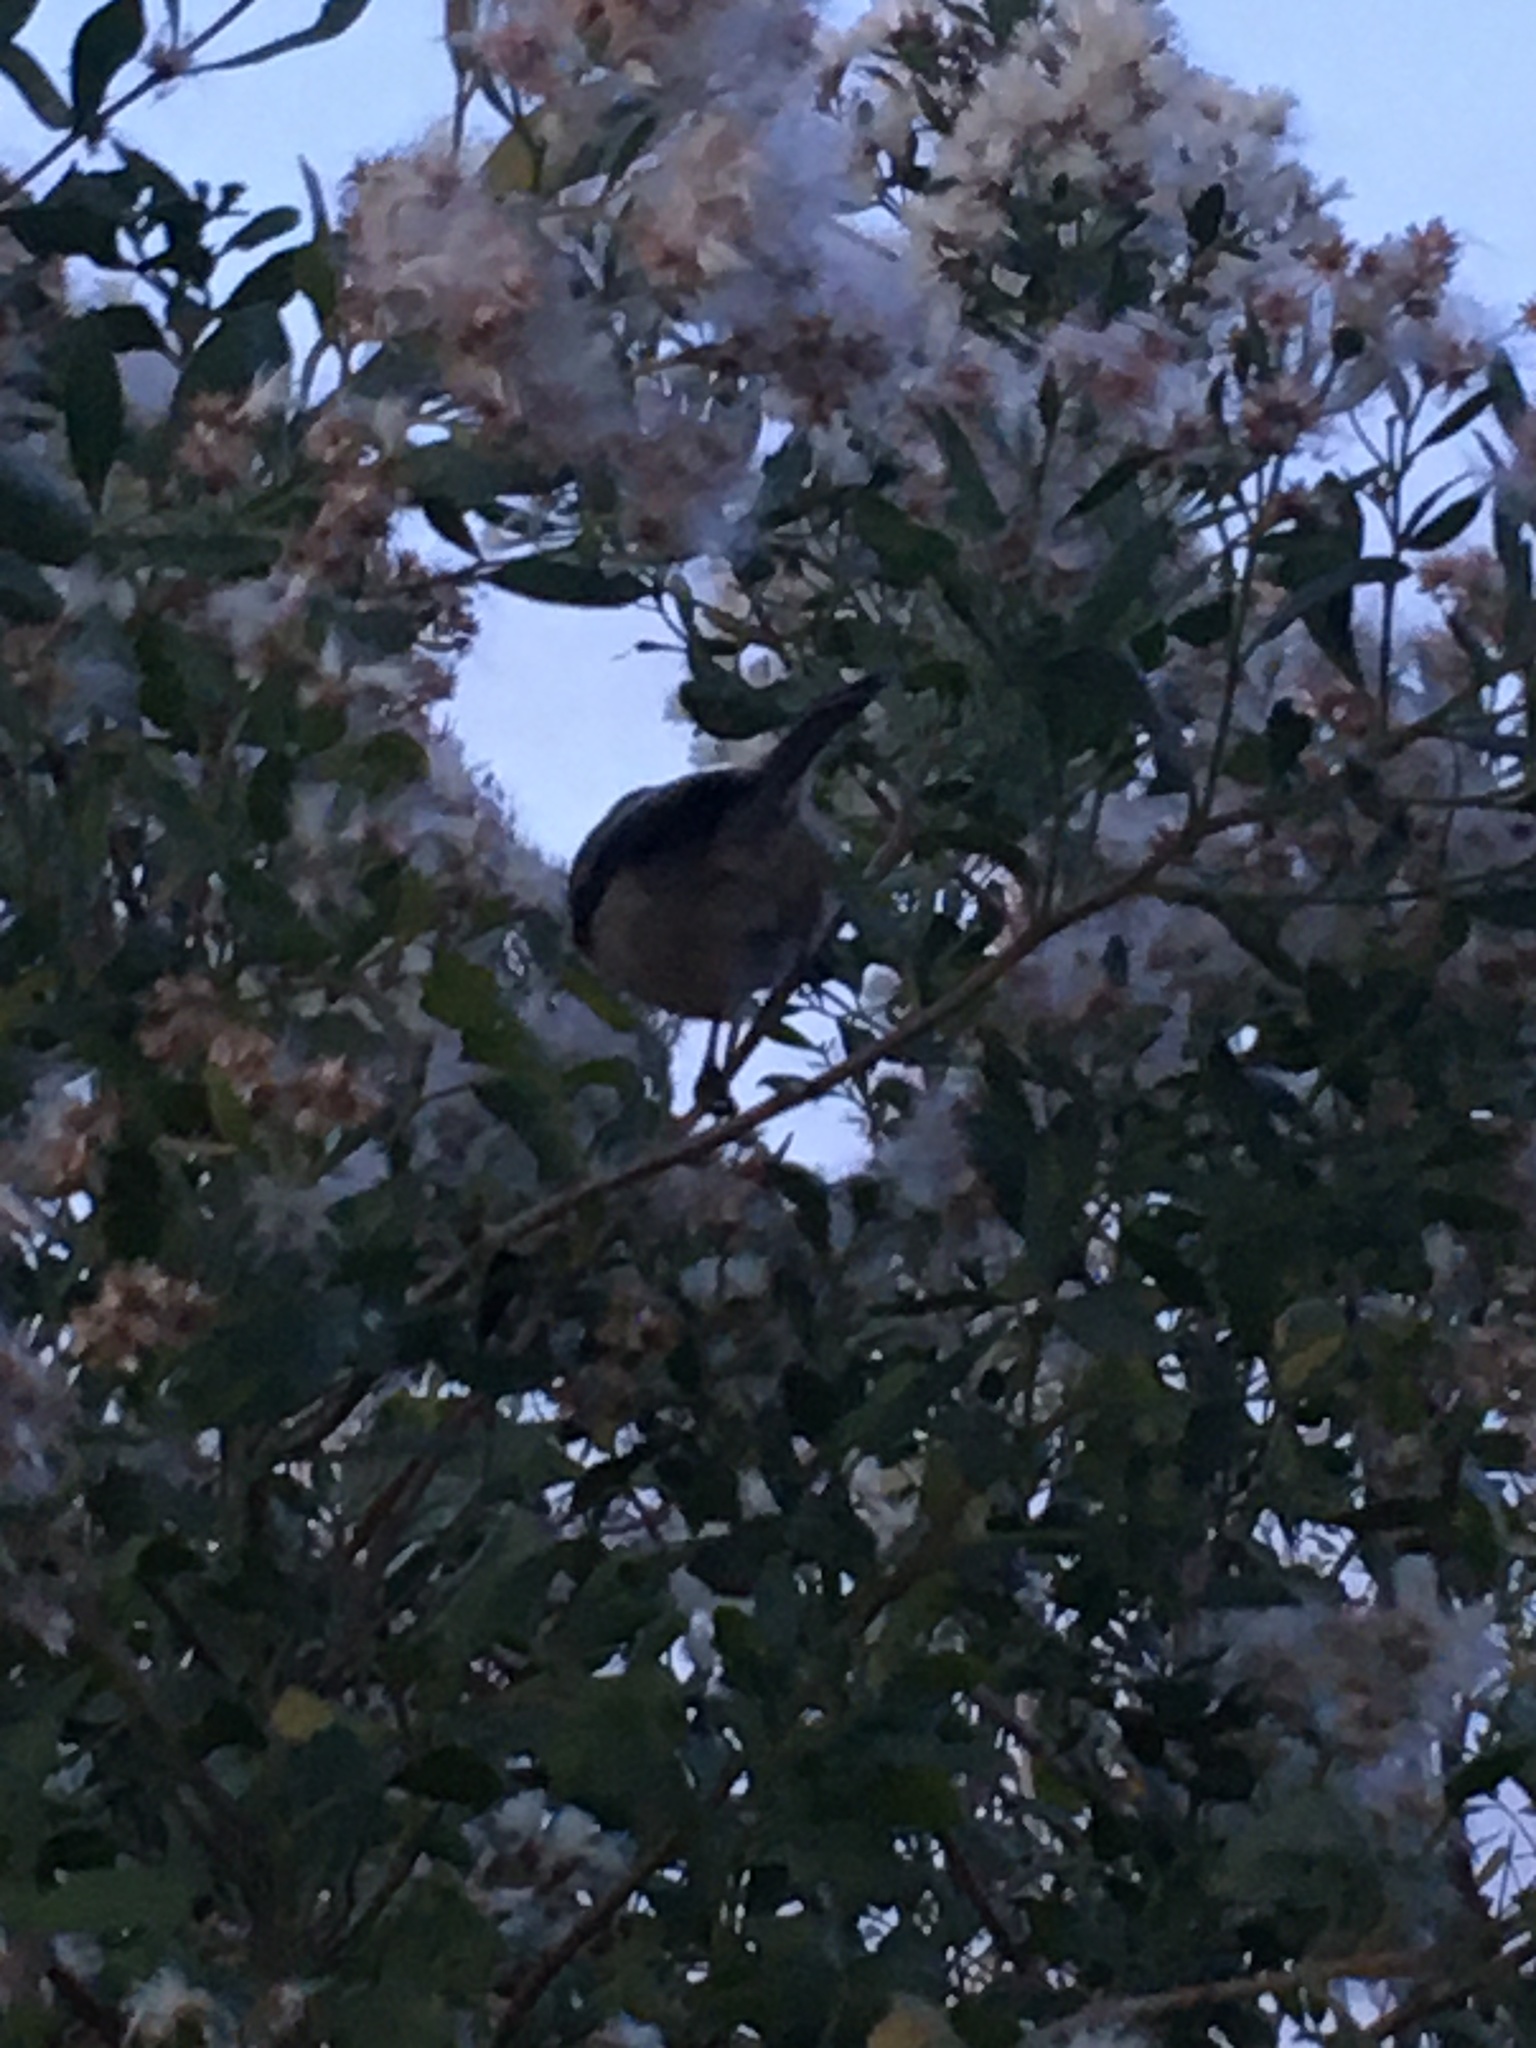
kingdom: Plantae
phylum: Tracheophyta
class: Magnoliopsida
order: Asterales
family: Asteraceae
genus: Baccharis
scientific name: Baccharis halimifolia
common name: Eastern baccharis
